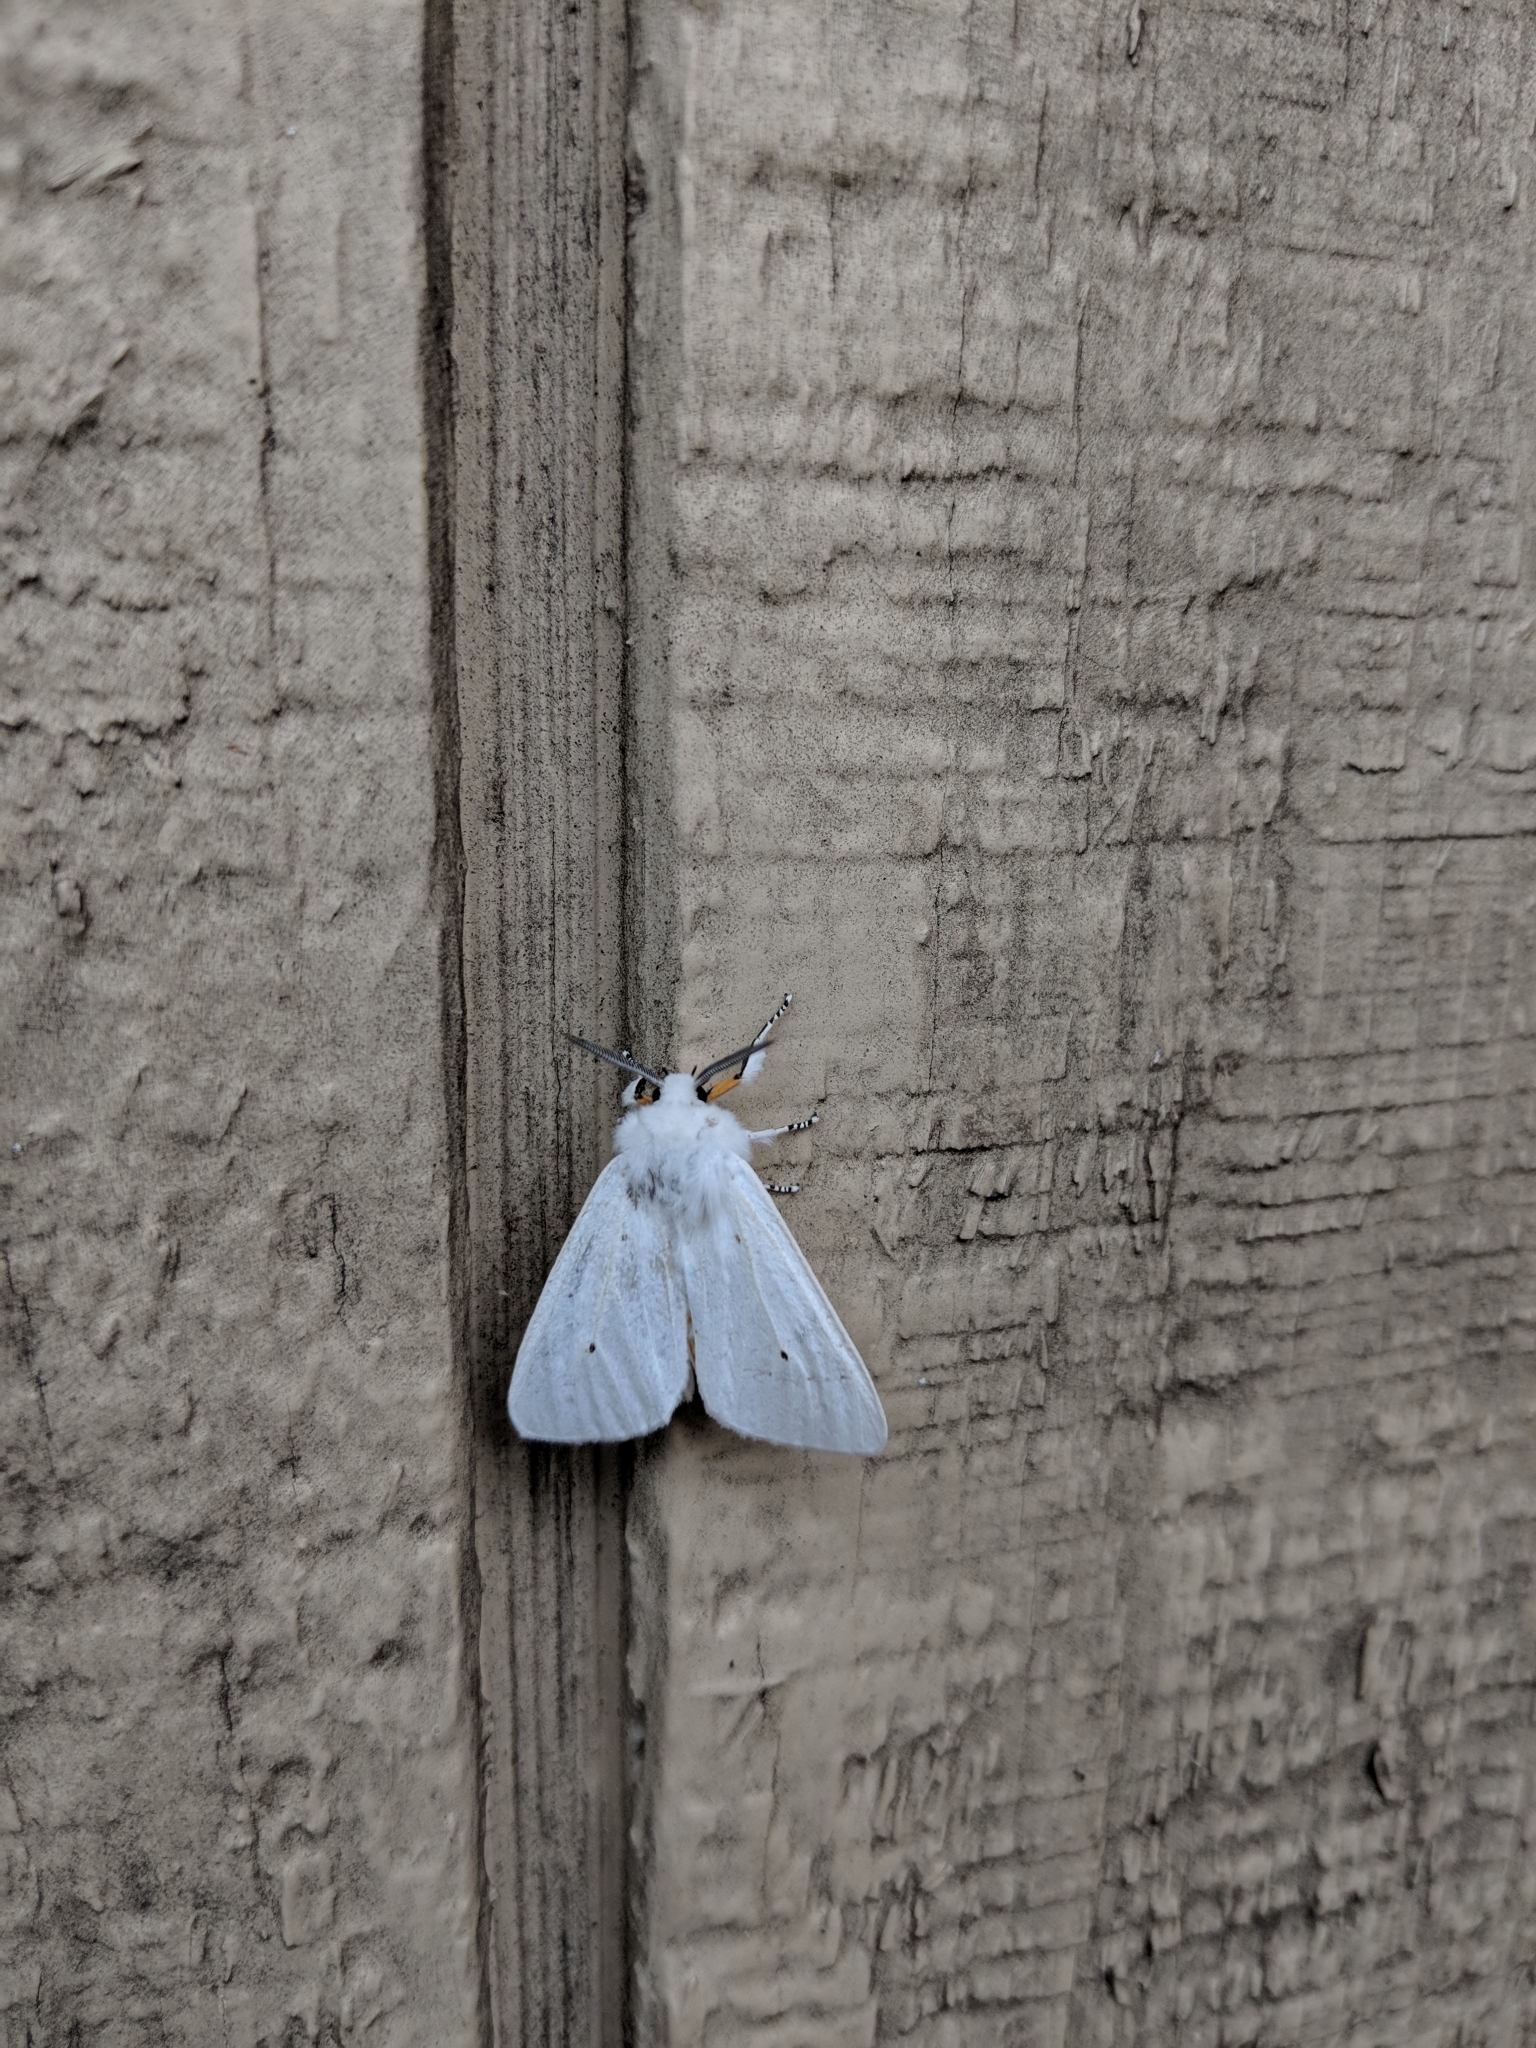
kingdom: Animalia
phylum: Arthropoda
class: Insecta
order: Lepidoptera
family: Erebidae
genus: Spilosoma
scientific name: Spilosoma virginica
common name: Virginia tiger moth
